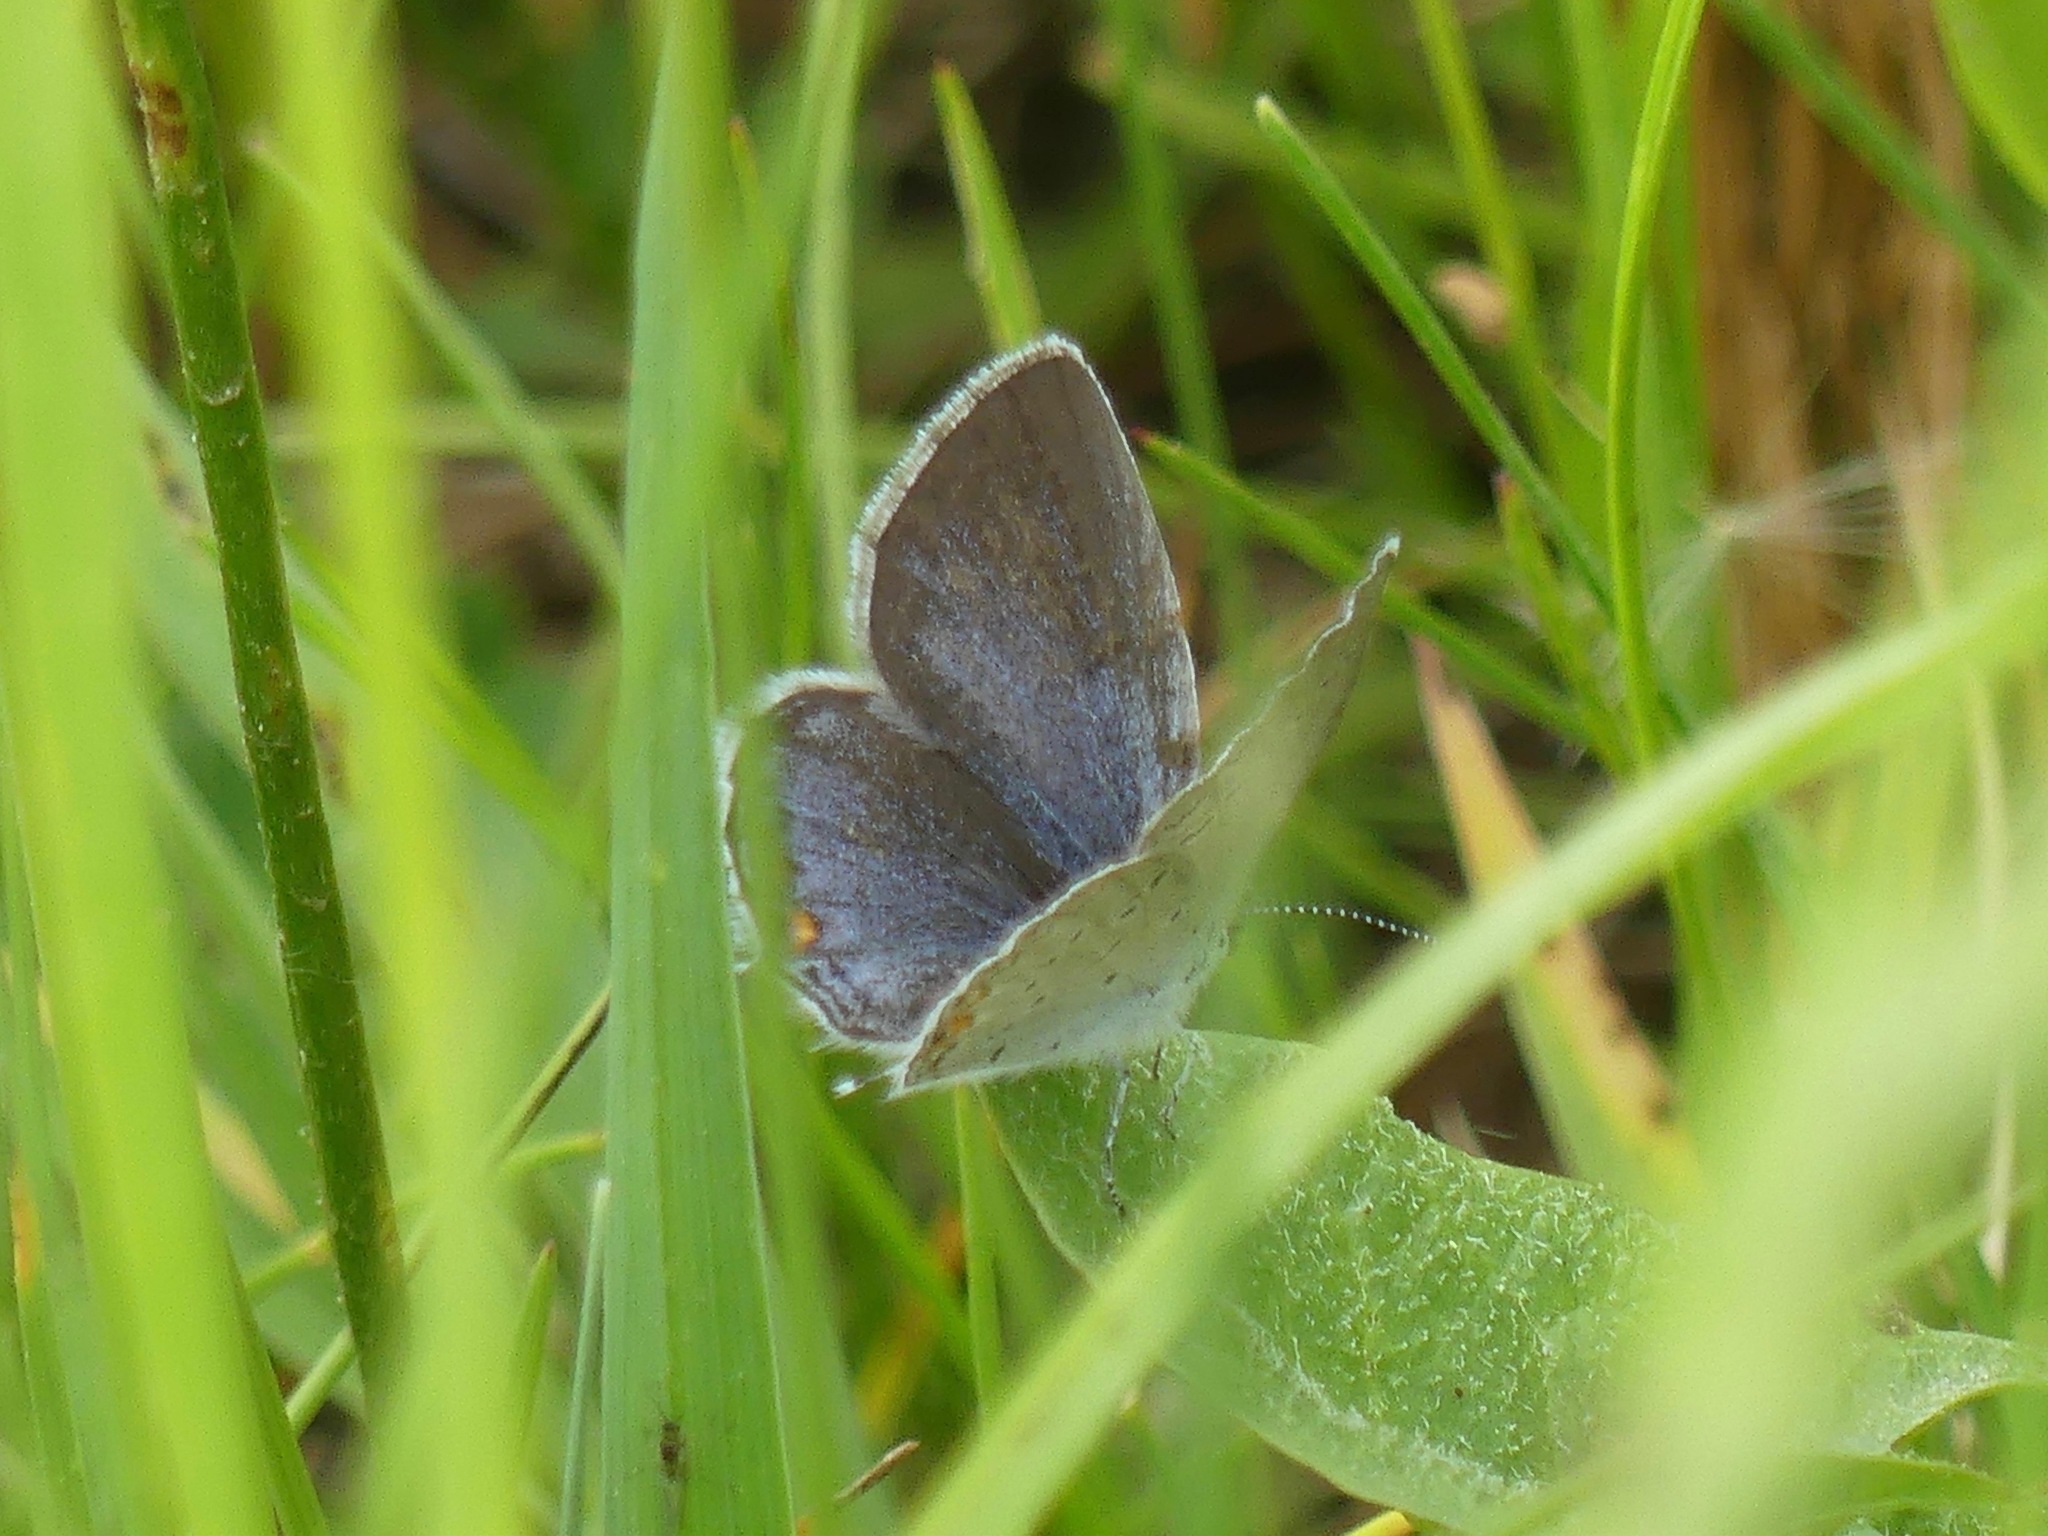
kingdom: Animalia
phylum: Arthropoda
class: Insecta
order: Lepidoptera
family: Lycaenidae
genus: Elkalyce
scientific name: Elkalyce comyntas
